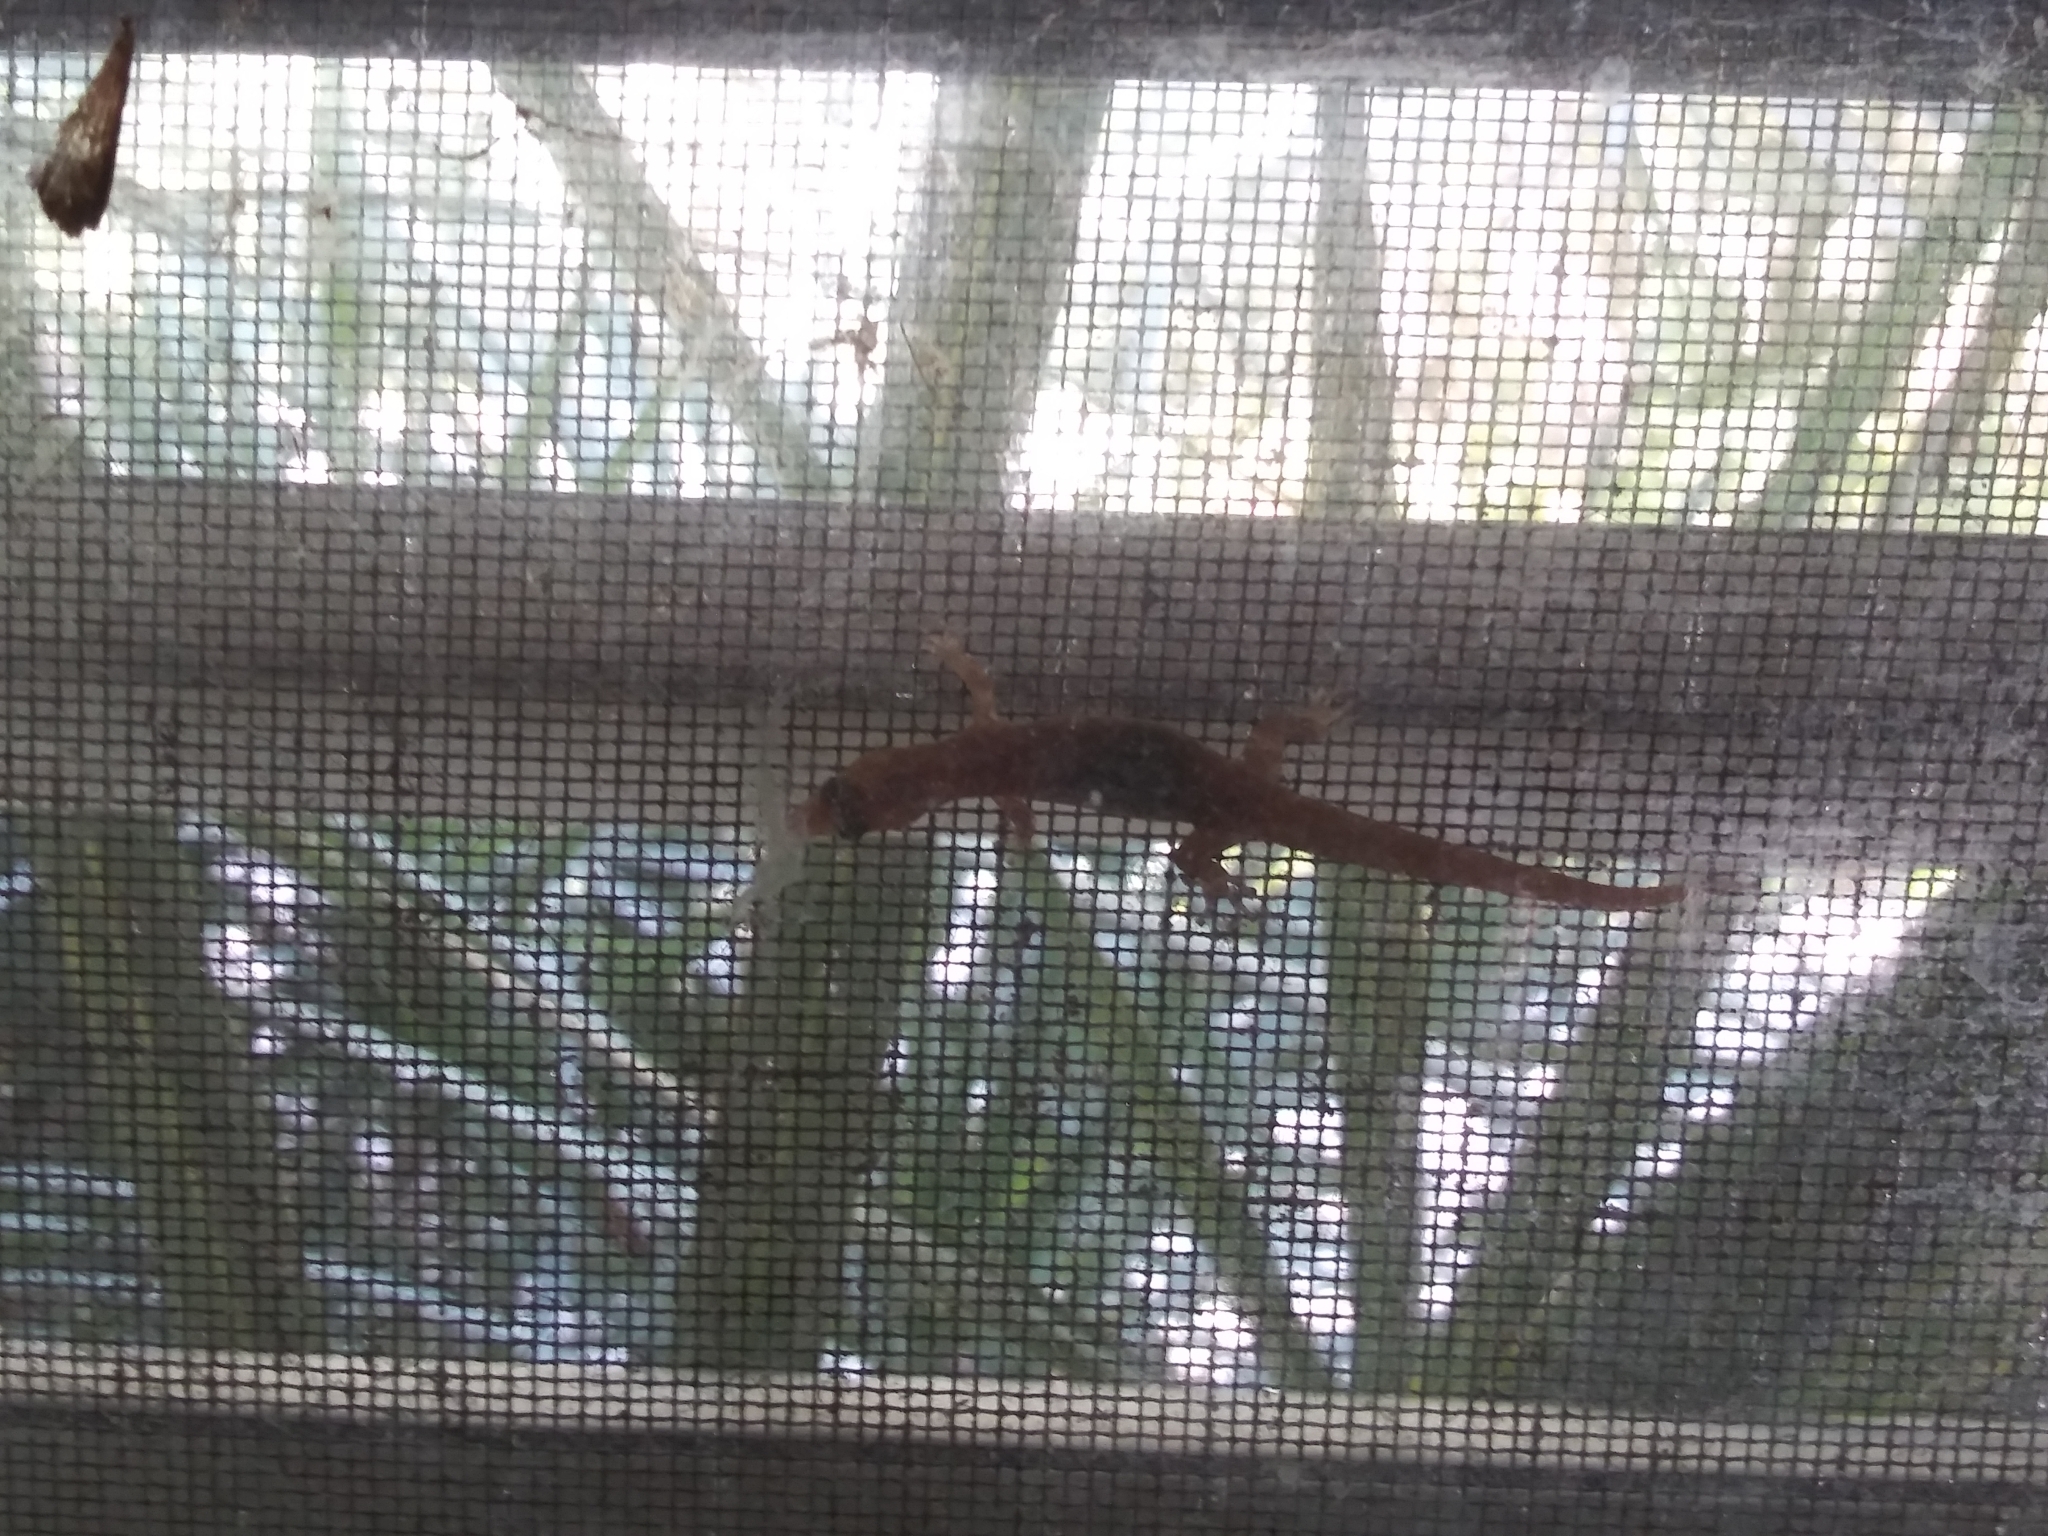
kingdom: Animalia
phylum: Chordata
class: Squamata
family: Sphaerodactylidae
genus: Sphaerodactylus
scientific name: Sphaerodactylus elegans
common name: Ashy gecko
